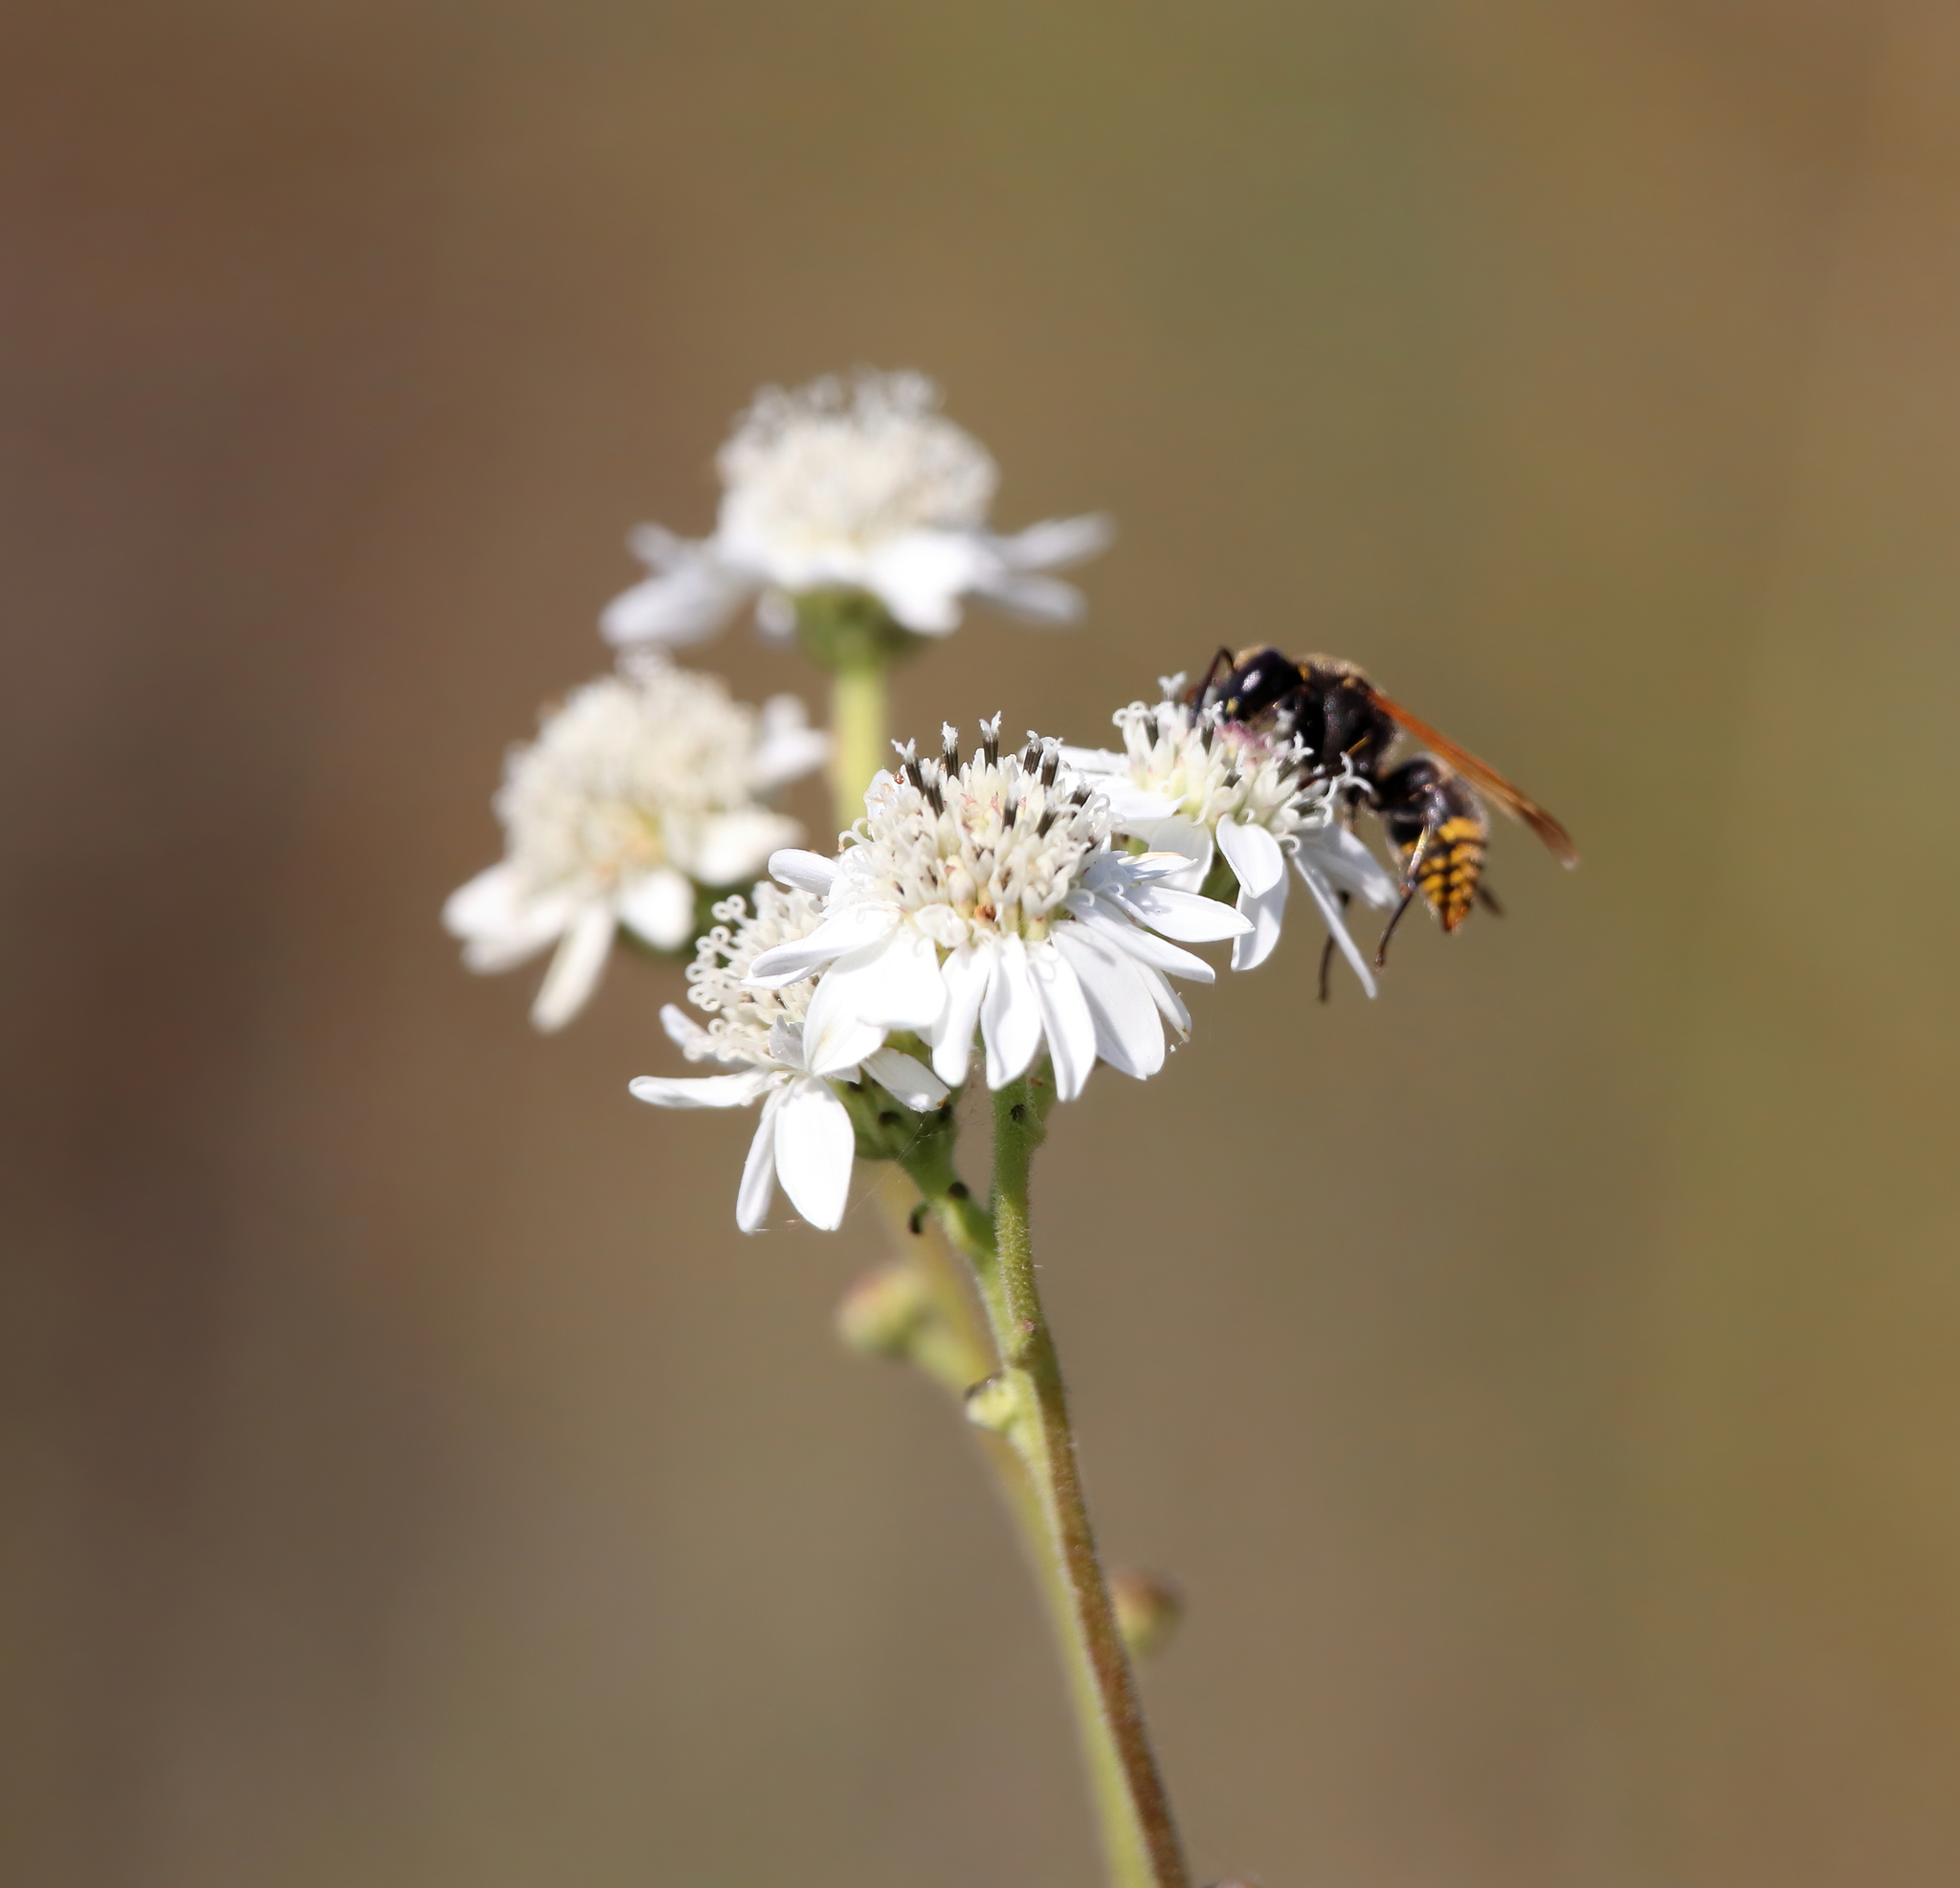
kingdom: Animalia
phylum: Arthropoda
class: Insecta
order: Hymenoptera
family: Vespidae
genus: Brachygastra
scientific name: Brachygastra mellifica
